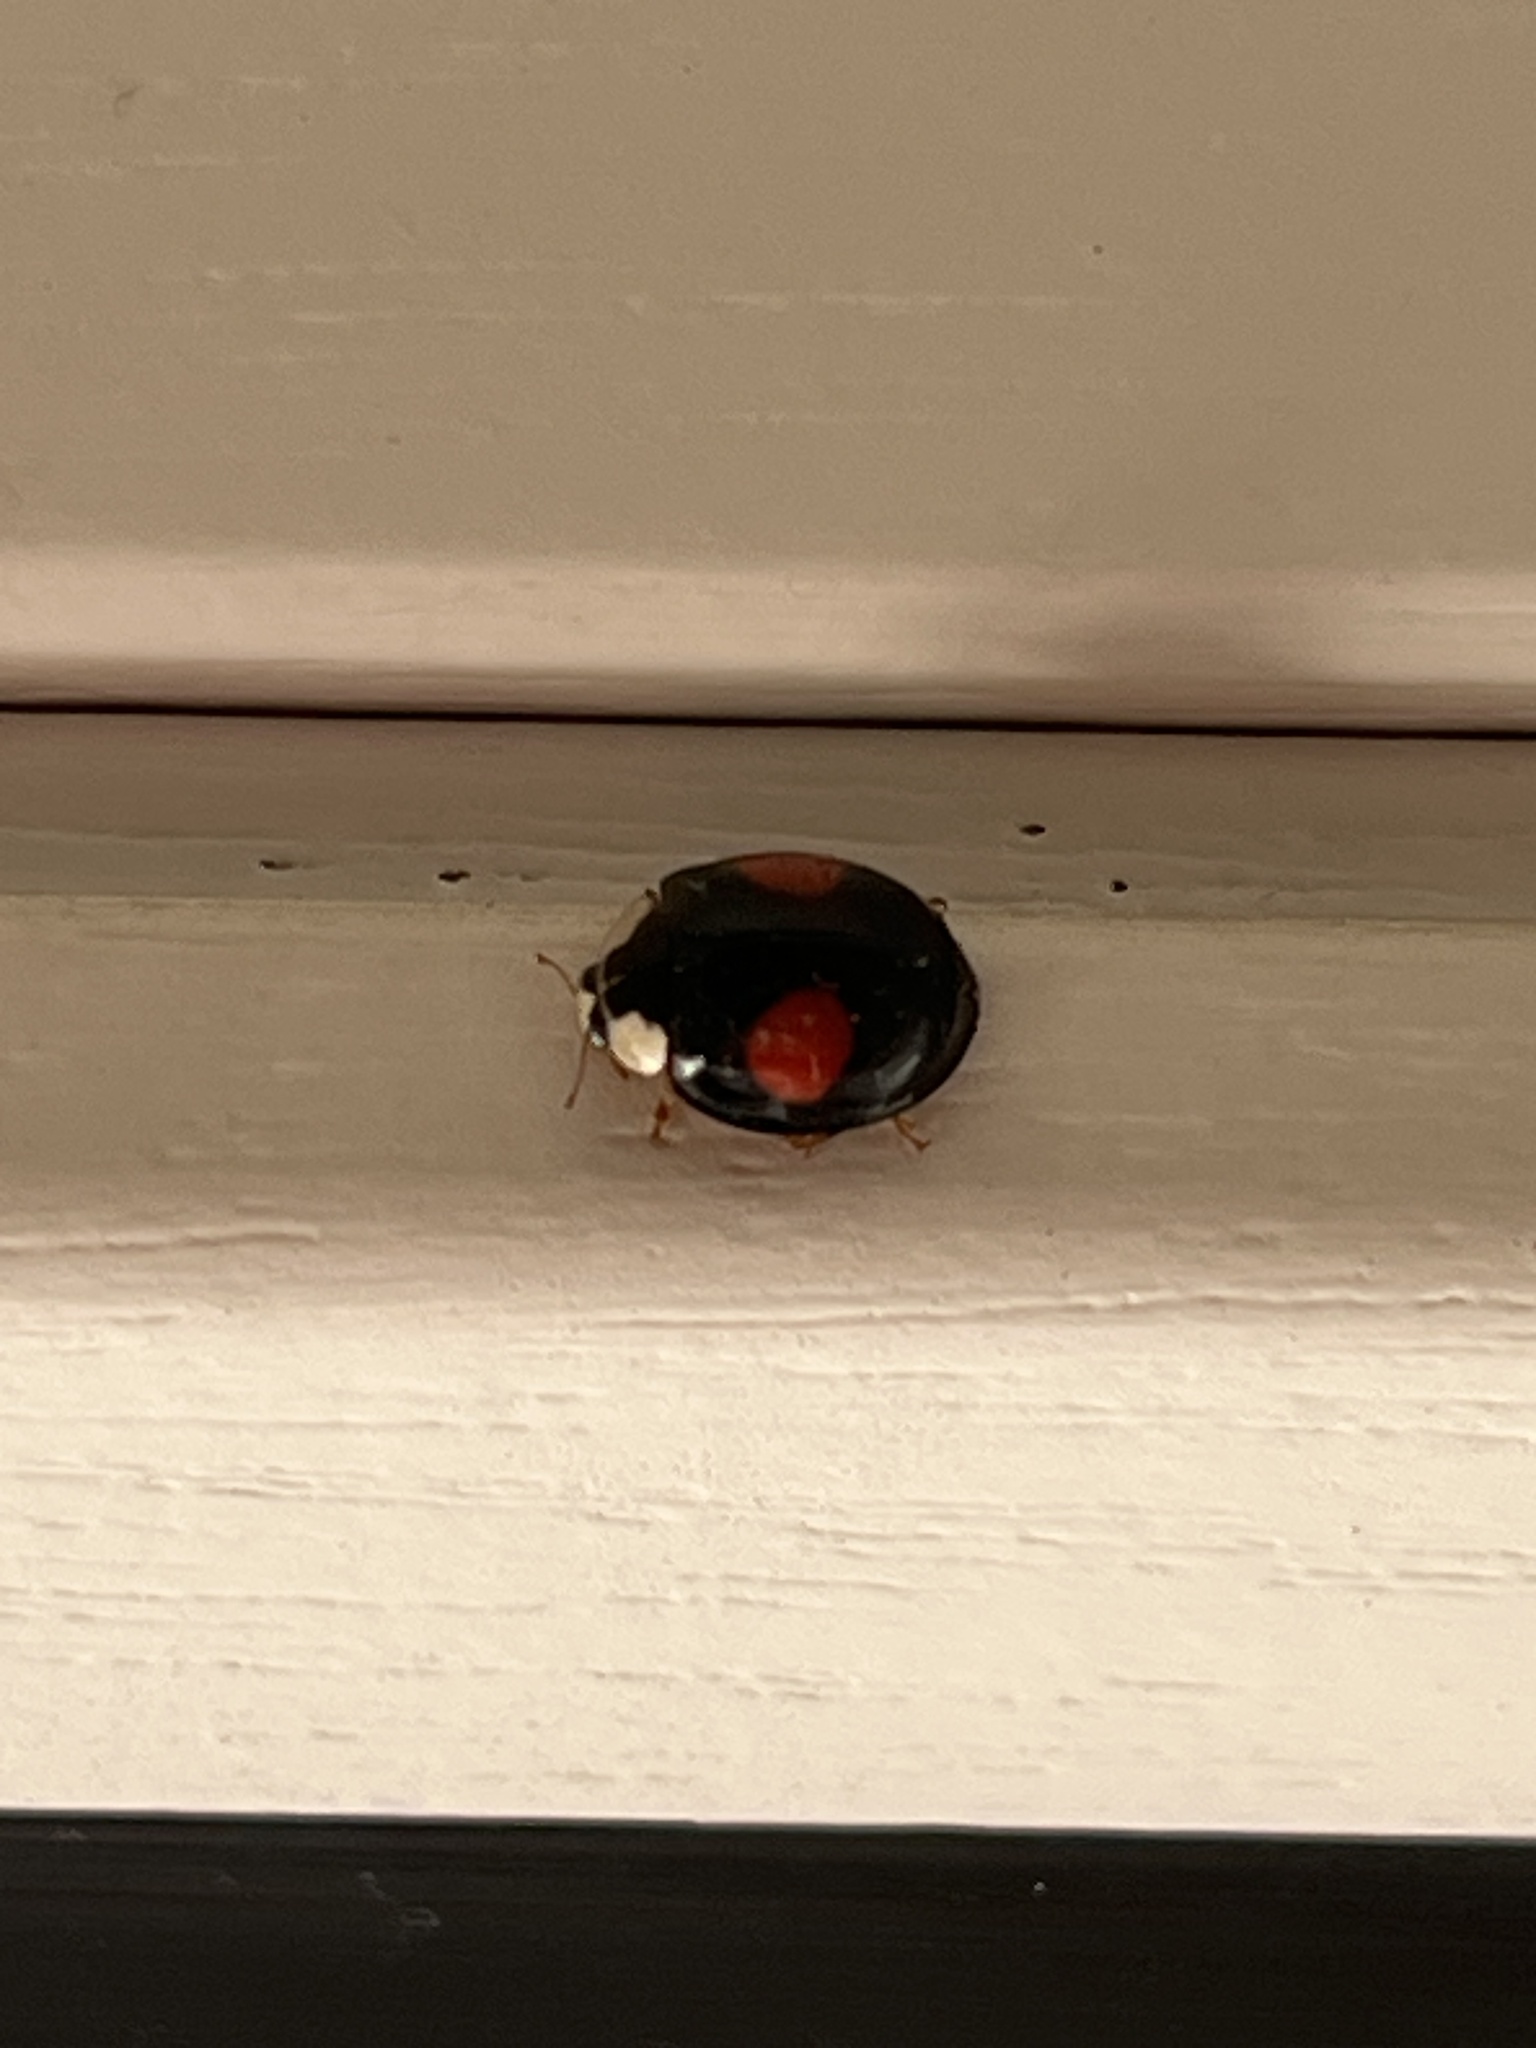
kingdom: Animalia
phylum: Arthropoda
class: Insecta
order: Coleoptera
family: Coccinellidae
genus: Harmonia
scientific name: Harmonia axyridis
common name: Harlequin ladybird
